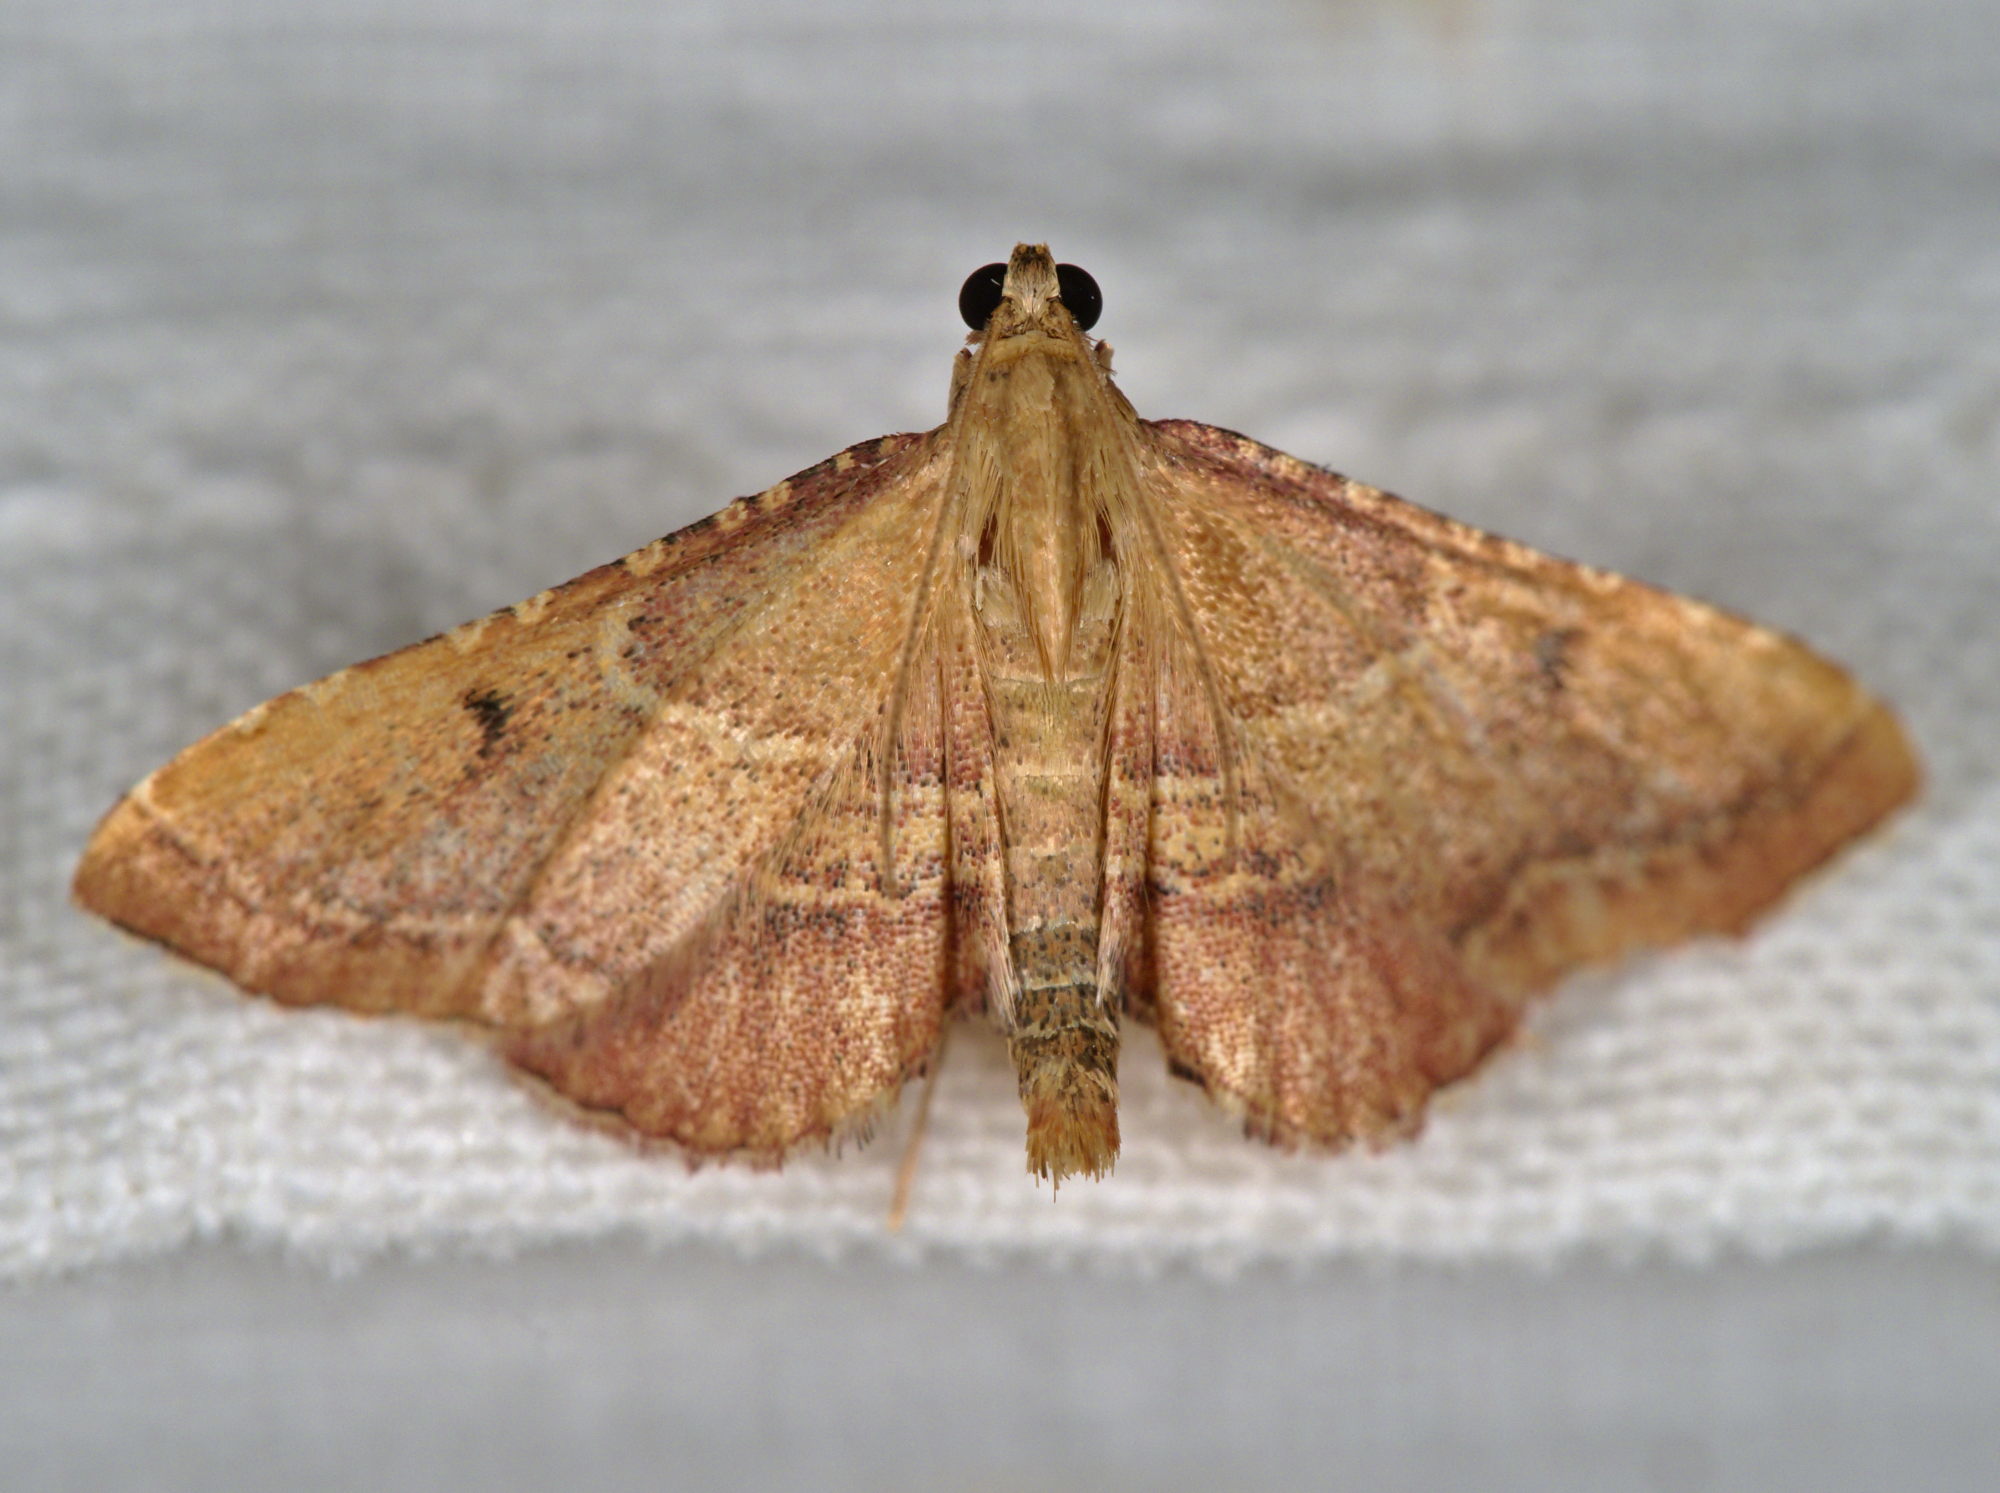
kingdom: Animalia
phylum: Arthropoda
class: Insecta
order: Lepidoptera
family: Pyralidae
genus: Endotricha
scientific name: Endotricha flammealis
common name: Rosy tabby
